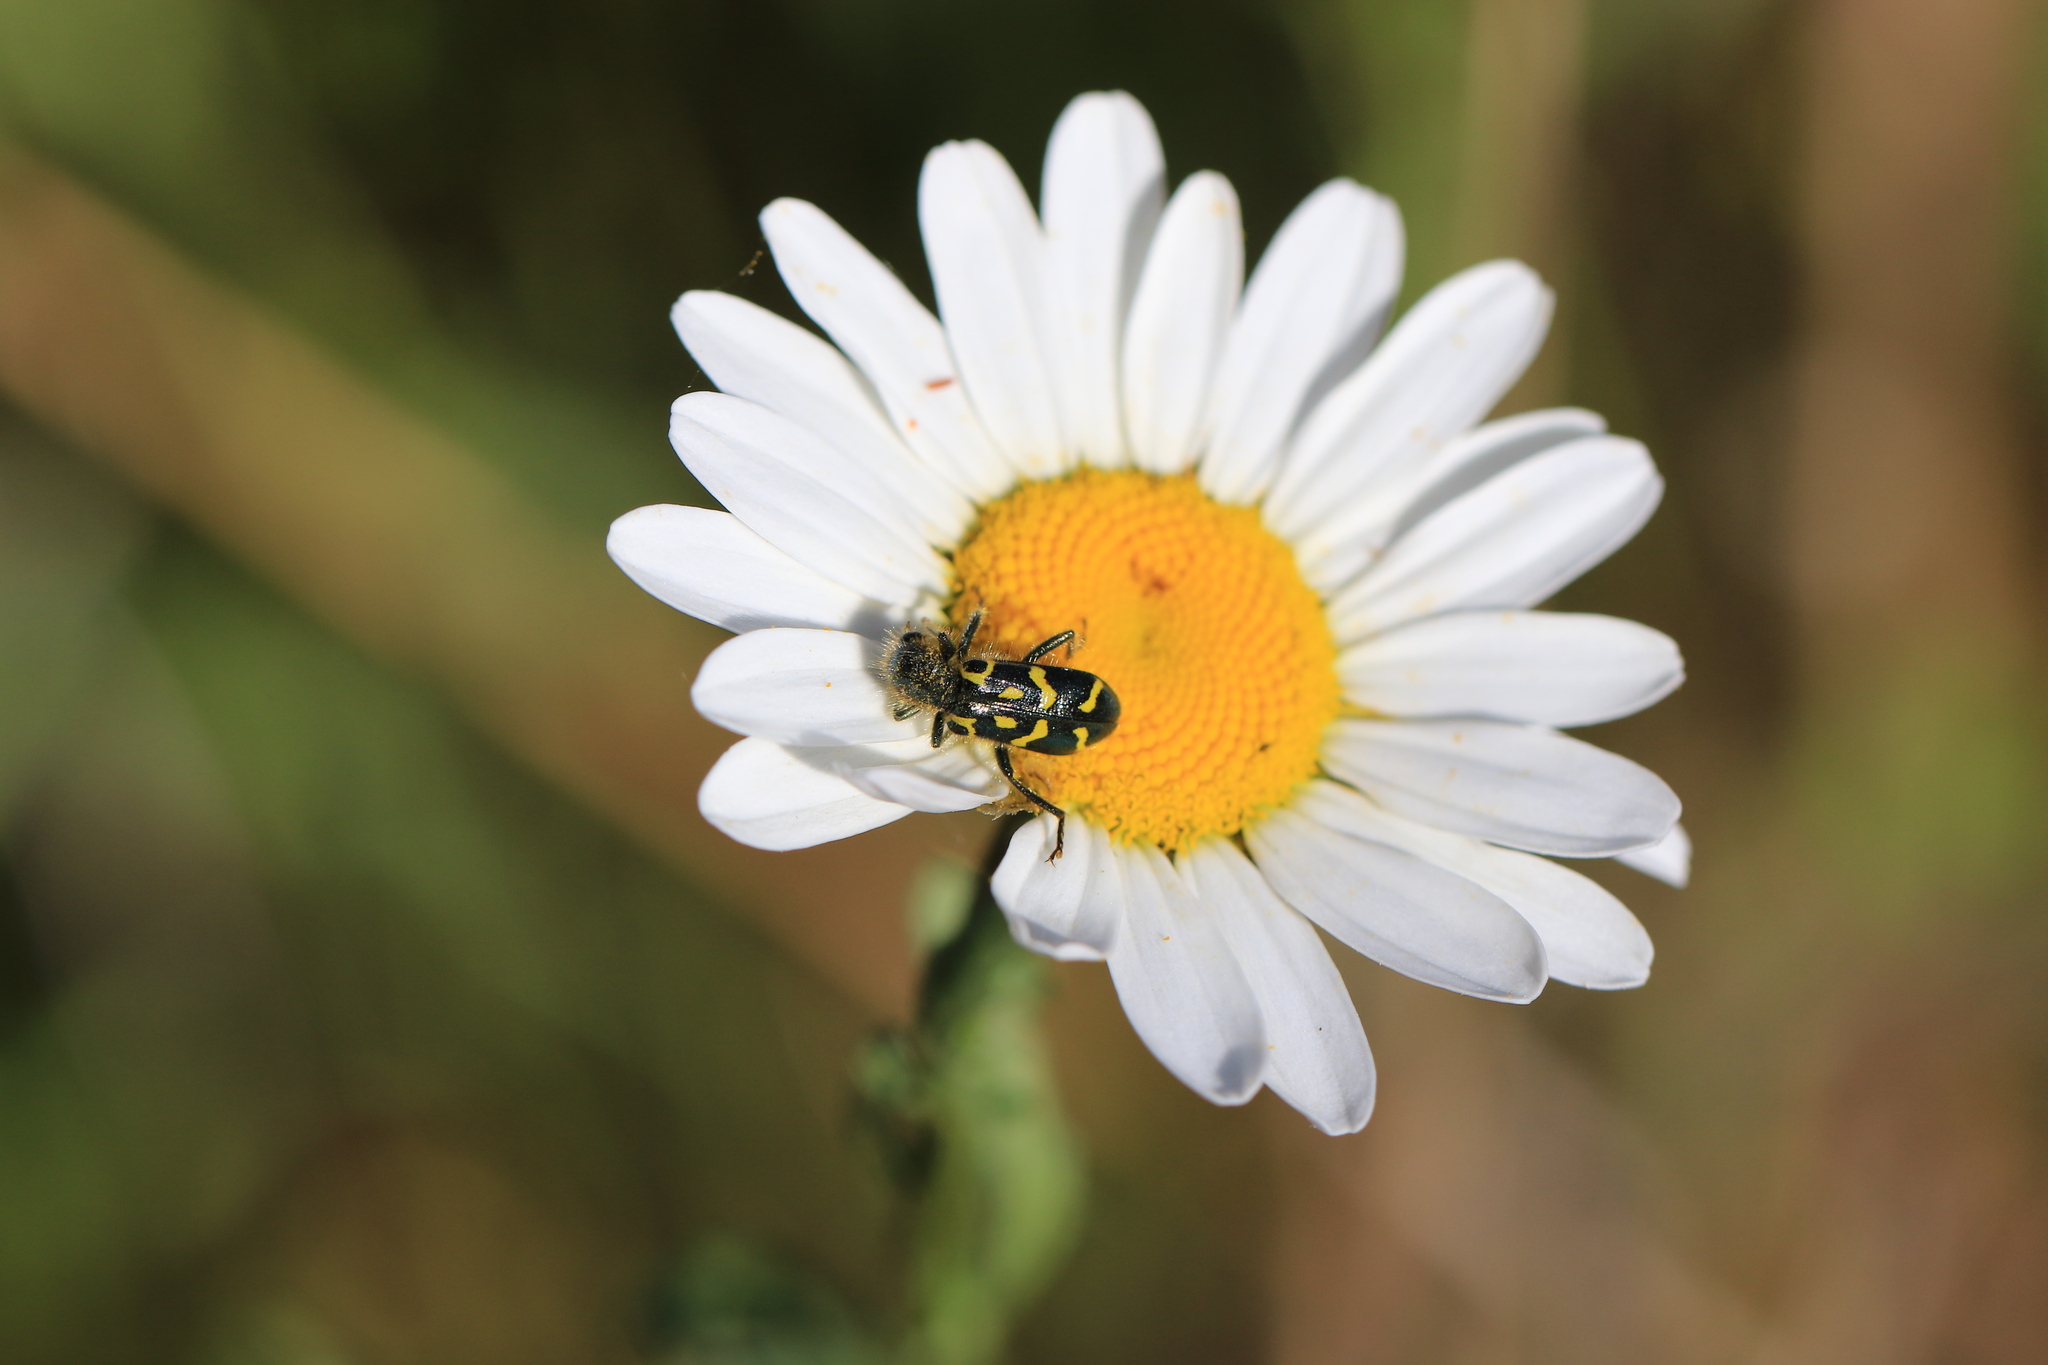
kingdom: Animalia
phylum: Arthropoda
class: Insecta
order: Coleoptera
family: Cleridae
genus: Trichodes
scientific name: Trichodes ornatus
